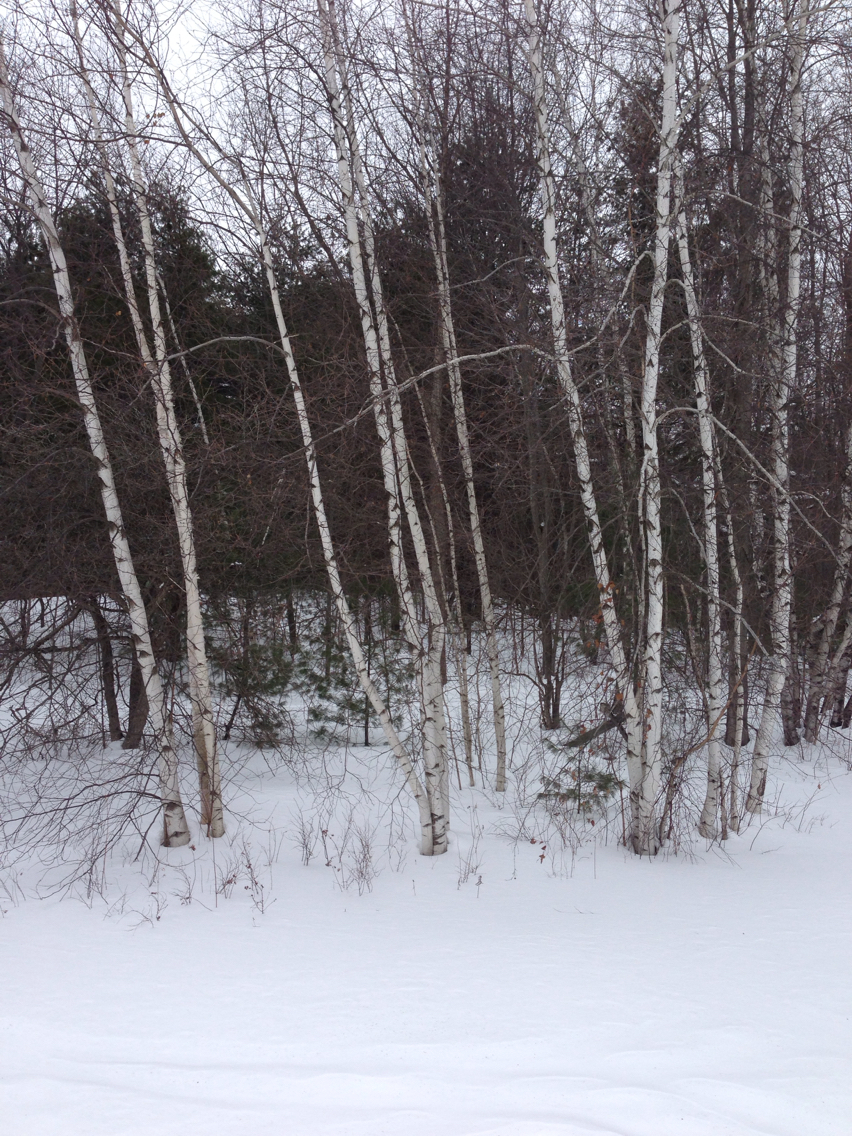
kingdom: Plantae
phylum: Tracheophyta
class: Magnoliopsida
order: Fagales
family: Betulaceae
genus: Betula
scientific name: Betula populifolia
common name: Fire birch
